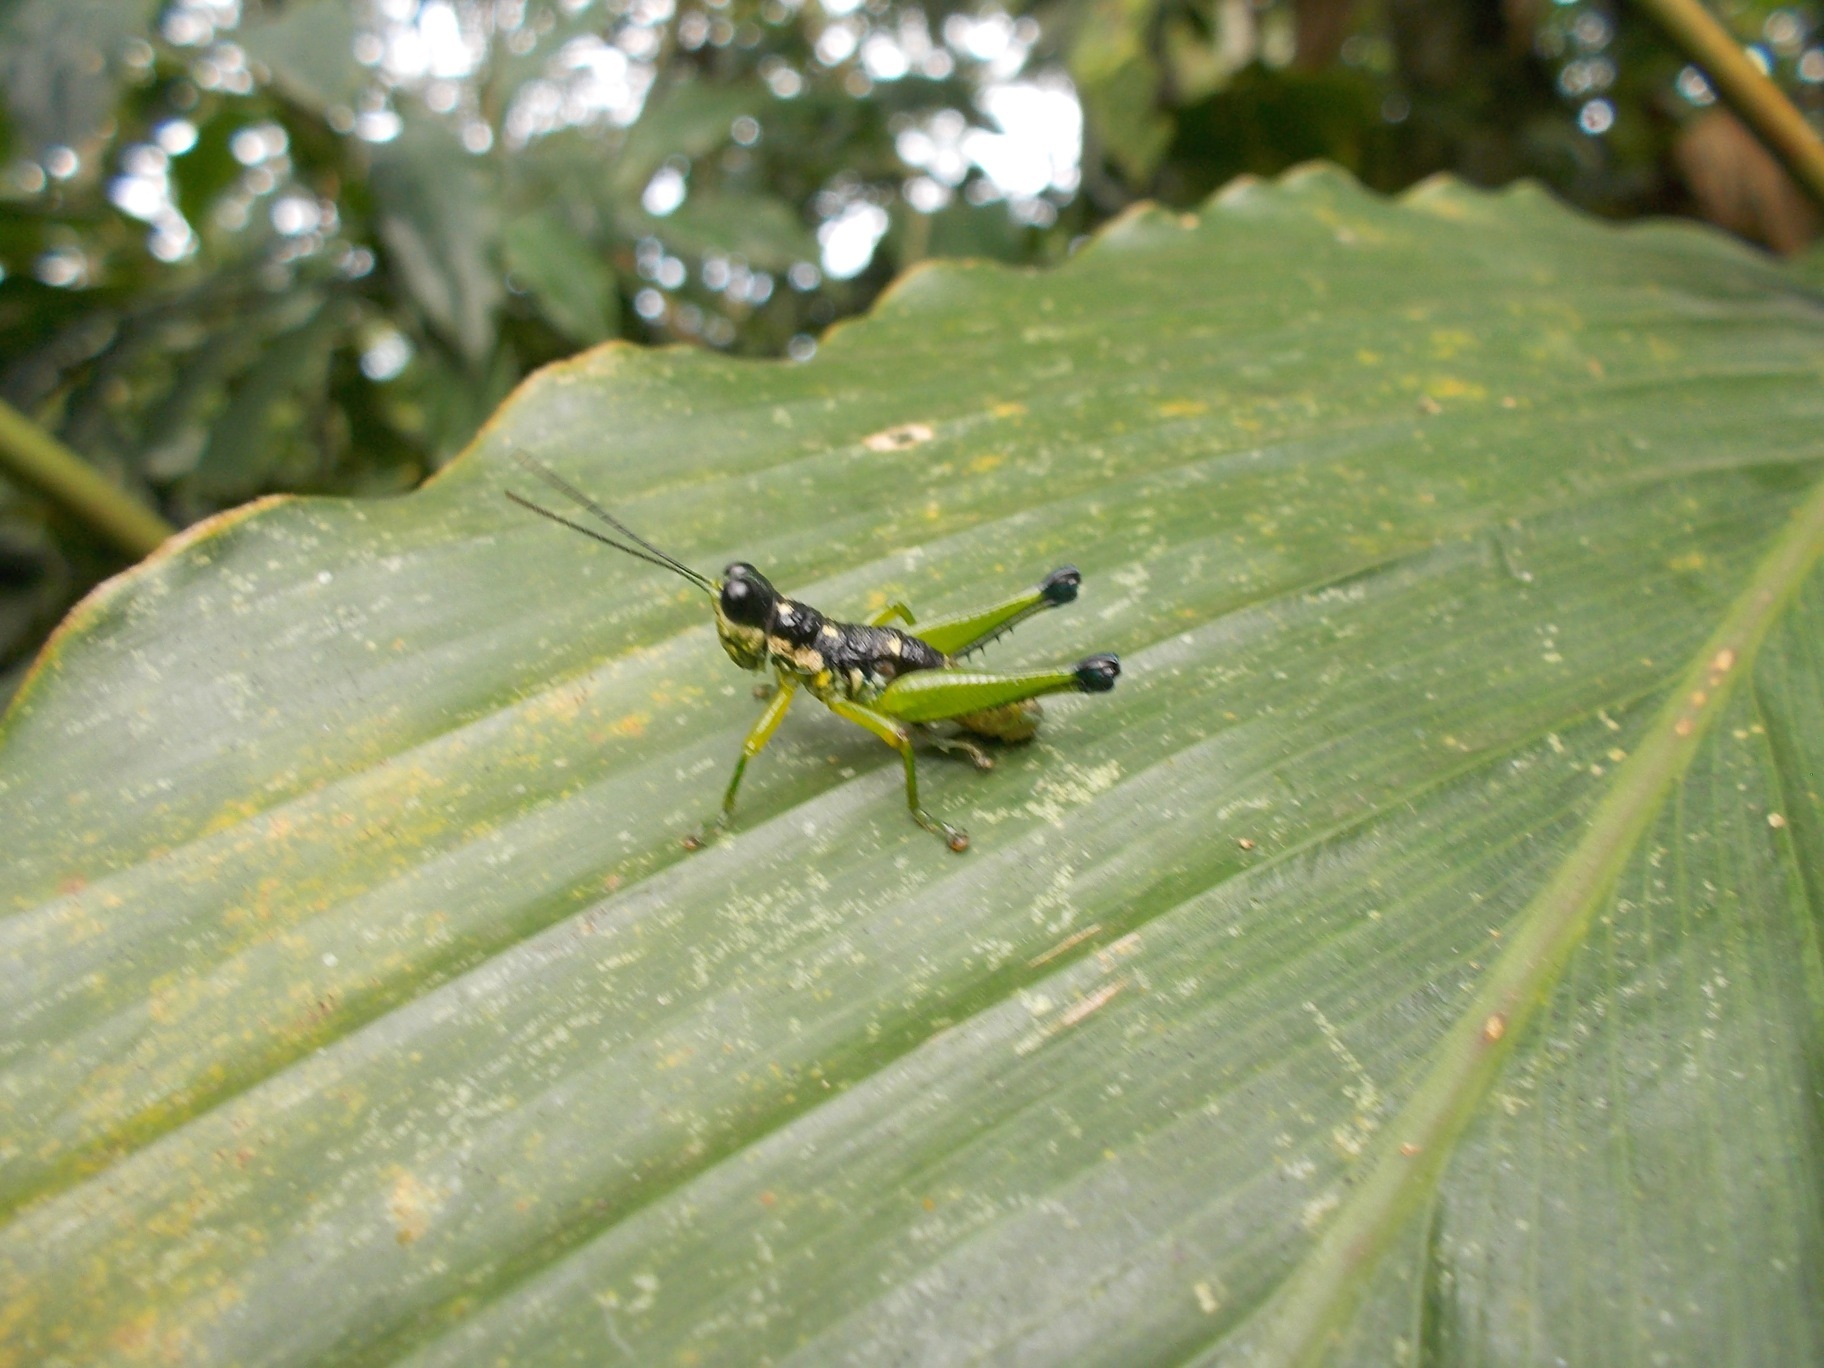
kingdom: Animalia
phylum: Arthropoda
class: Insecta
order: Orthoptera
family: Acrididae
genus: Pterotiltus
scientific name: Pterotiltus hollisi
